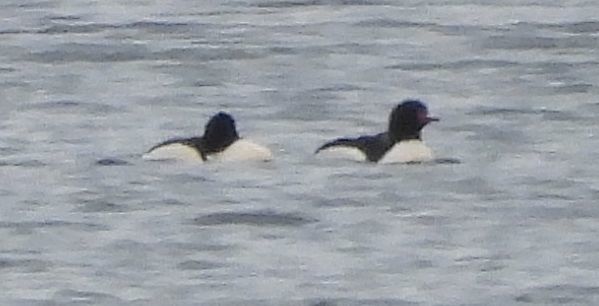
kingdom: Animalia
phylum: Chordata
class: Aves
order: Anseriformes
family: Anatidae
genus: Mergus
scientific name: Mergus merganser
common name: Common merganser
